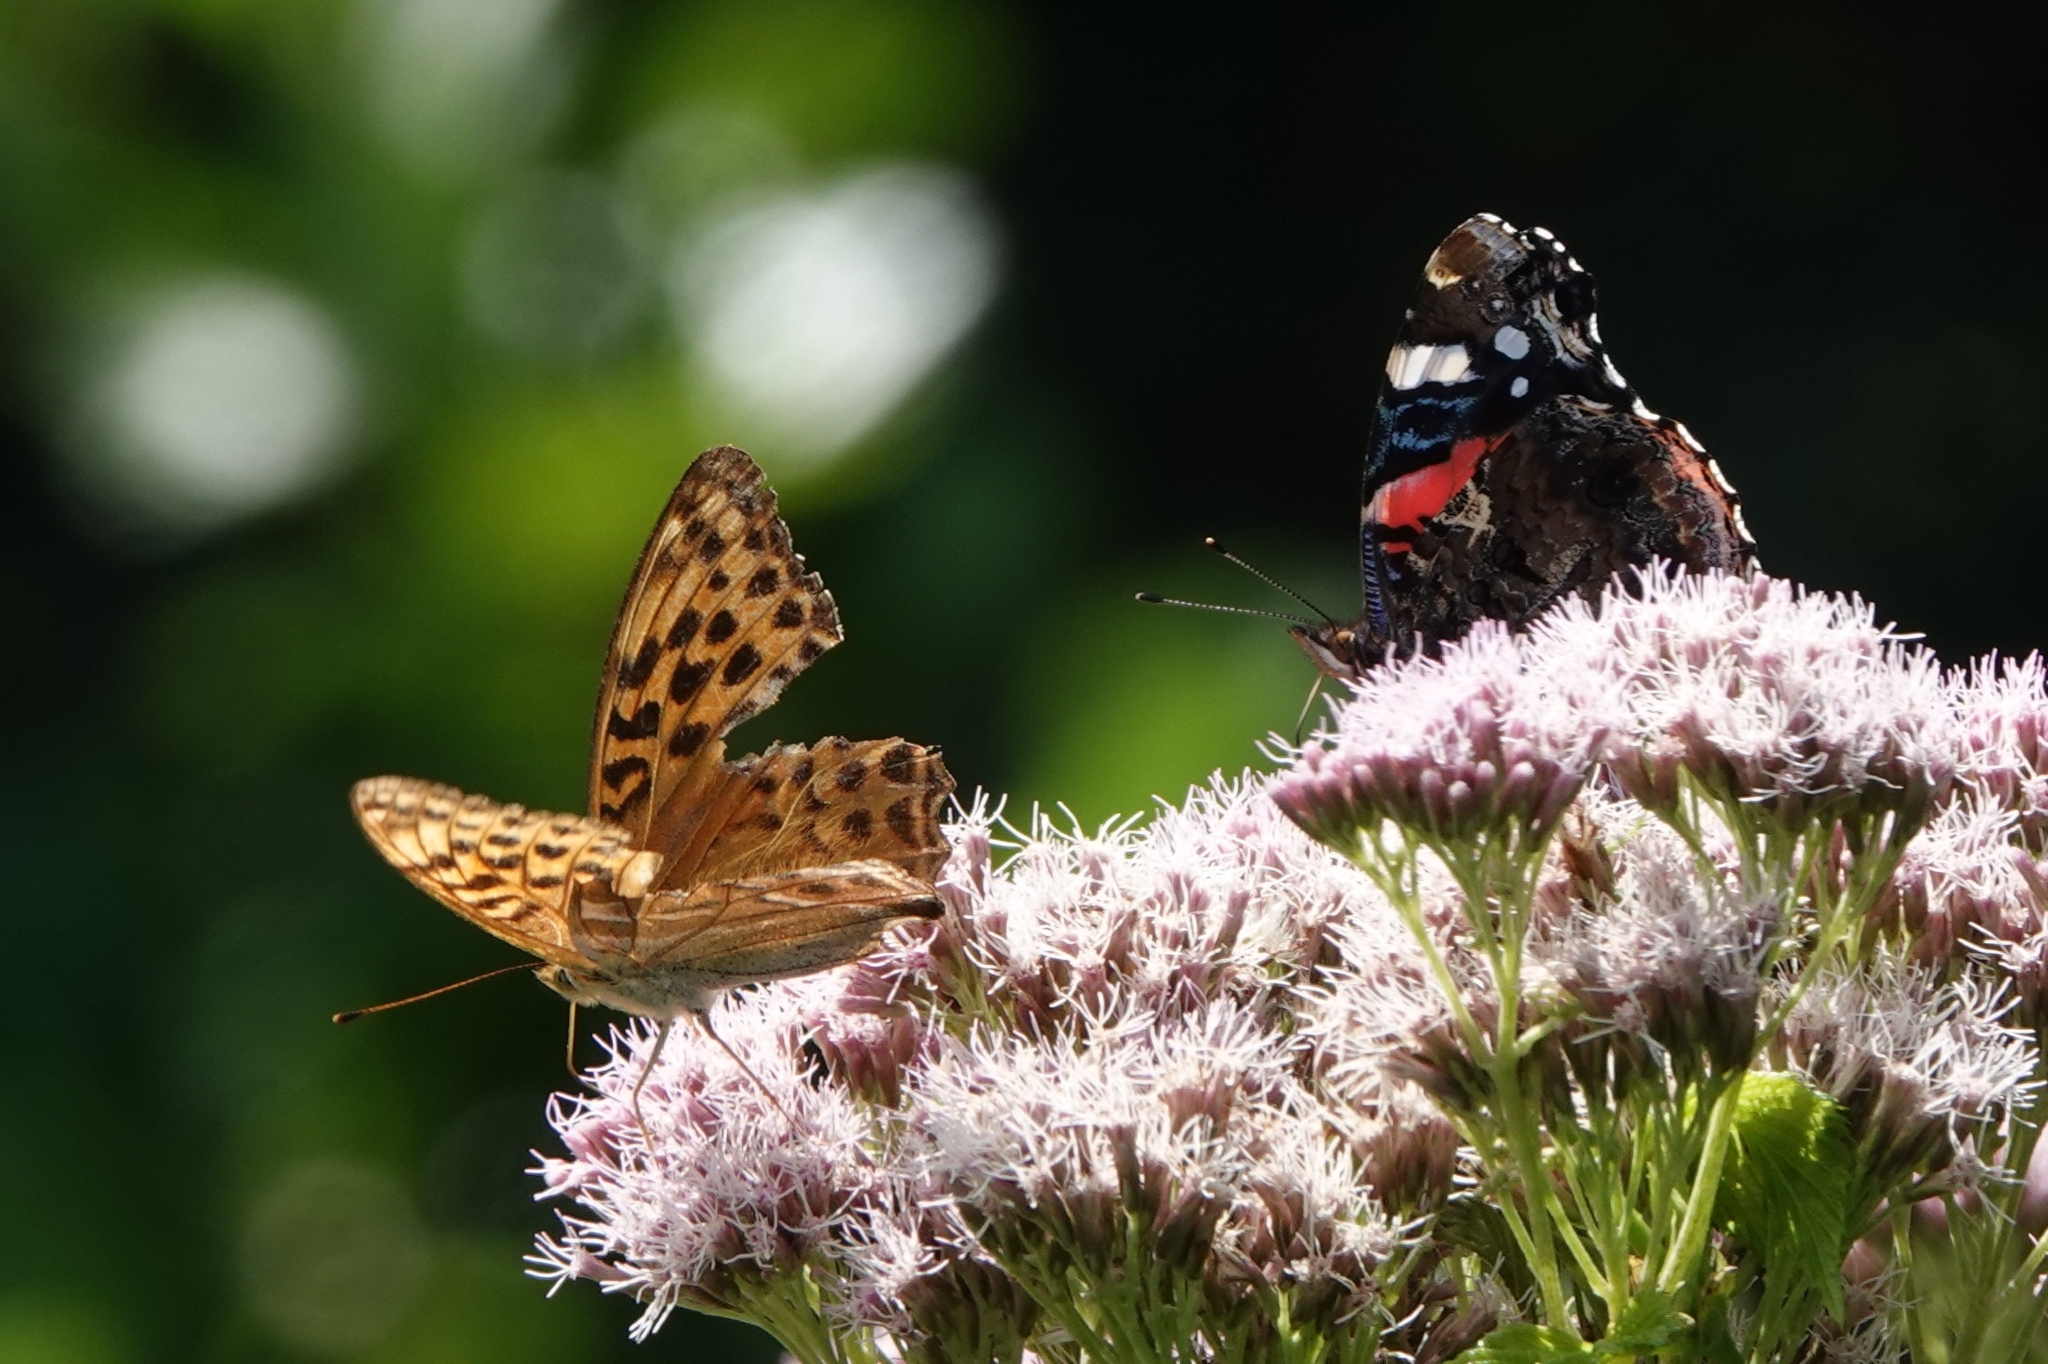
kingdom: Animalia
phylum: Arthropoda
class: Insecta
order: Lepidoptera
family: Nymphalidae
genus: Argynnis
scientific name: Argynnis paphia
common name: Silver-washed fritillary
